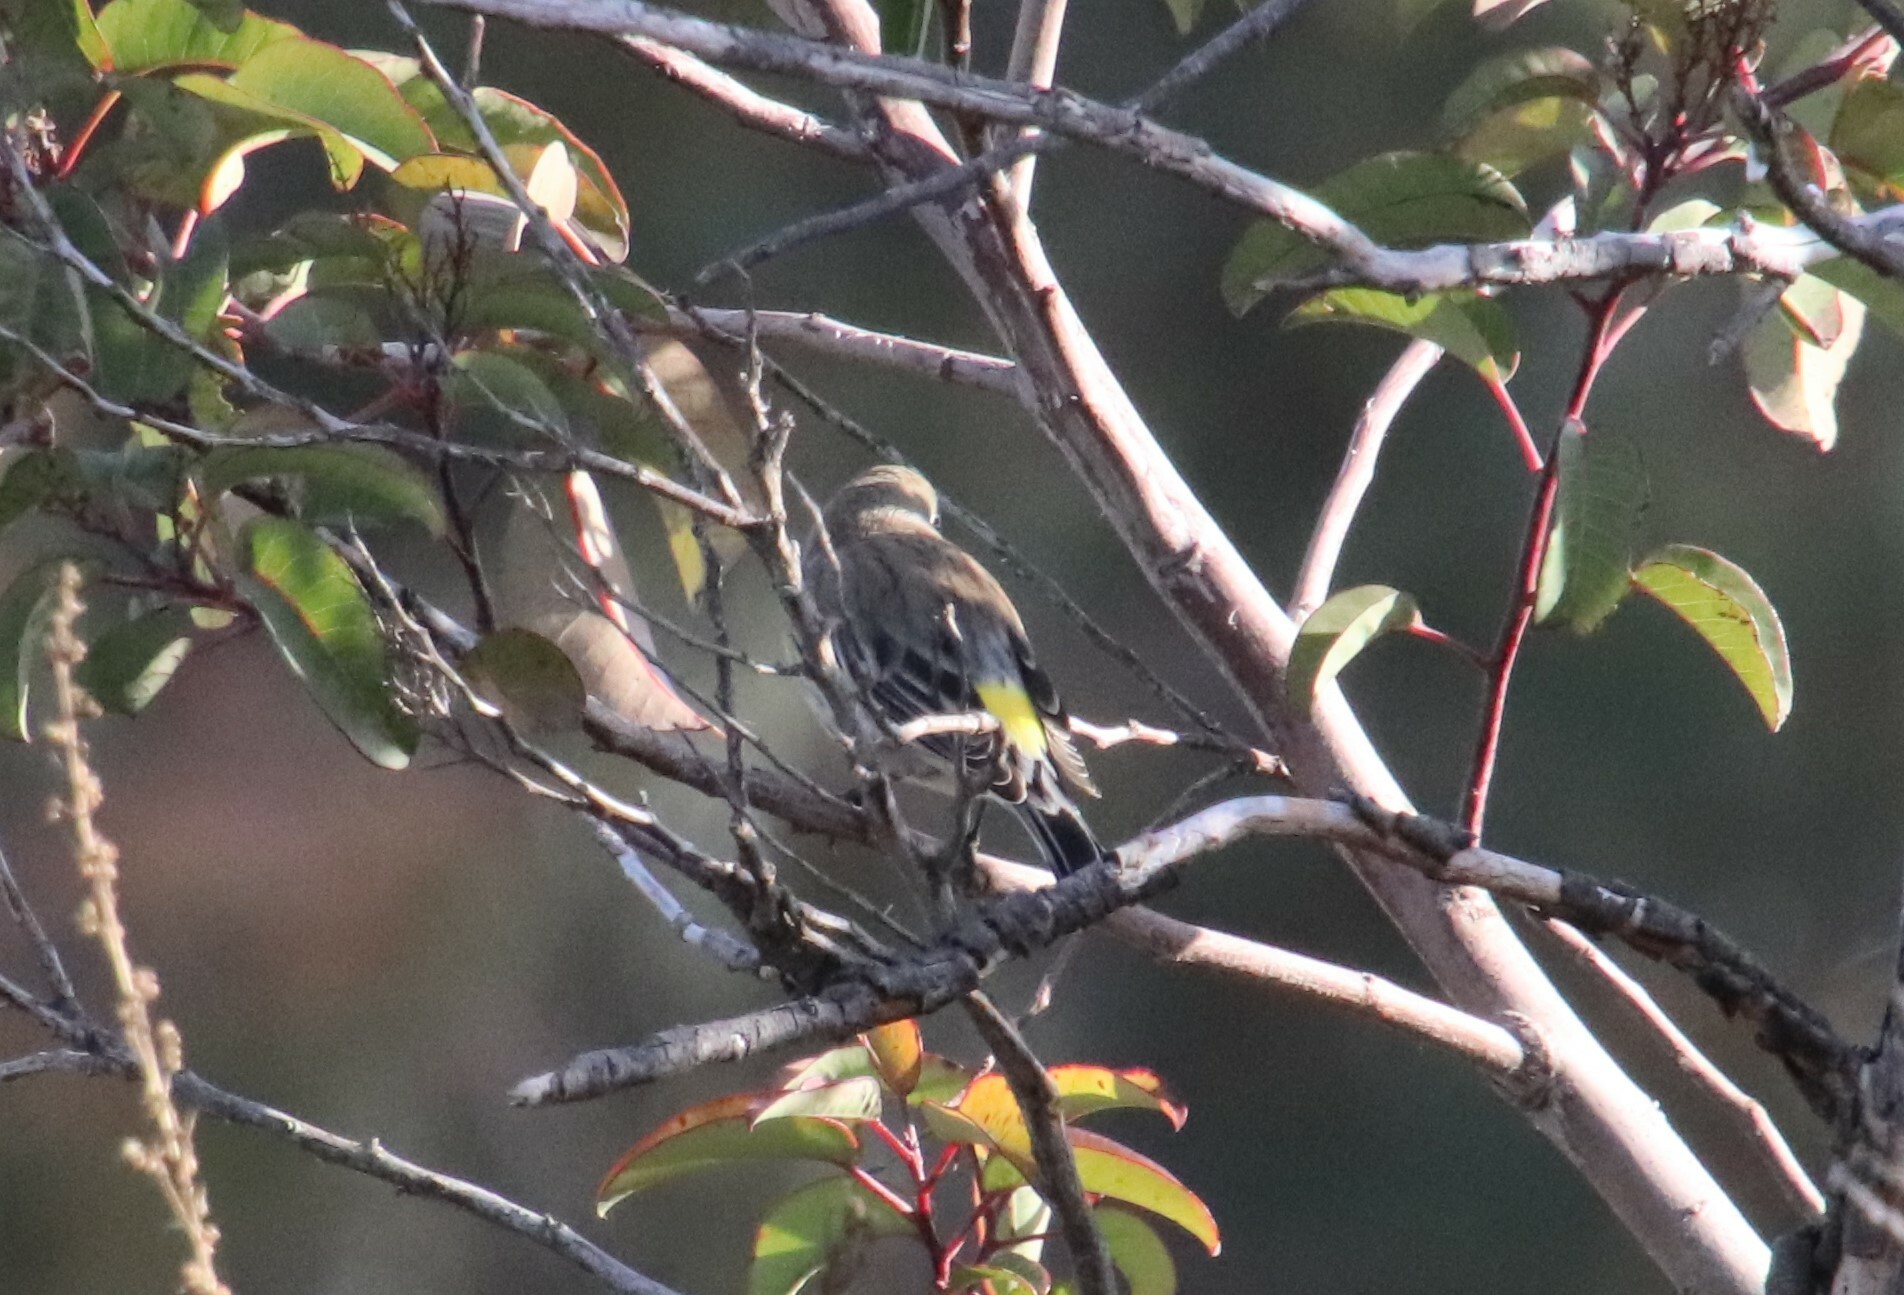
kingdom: Animalia
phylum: Chordata
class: Aves
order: Passeriformes
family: Parulidae
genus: Setophaga
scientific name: Setophaga coronata
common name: Myrtle warbler
